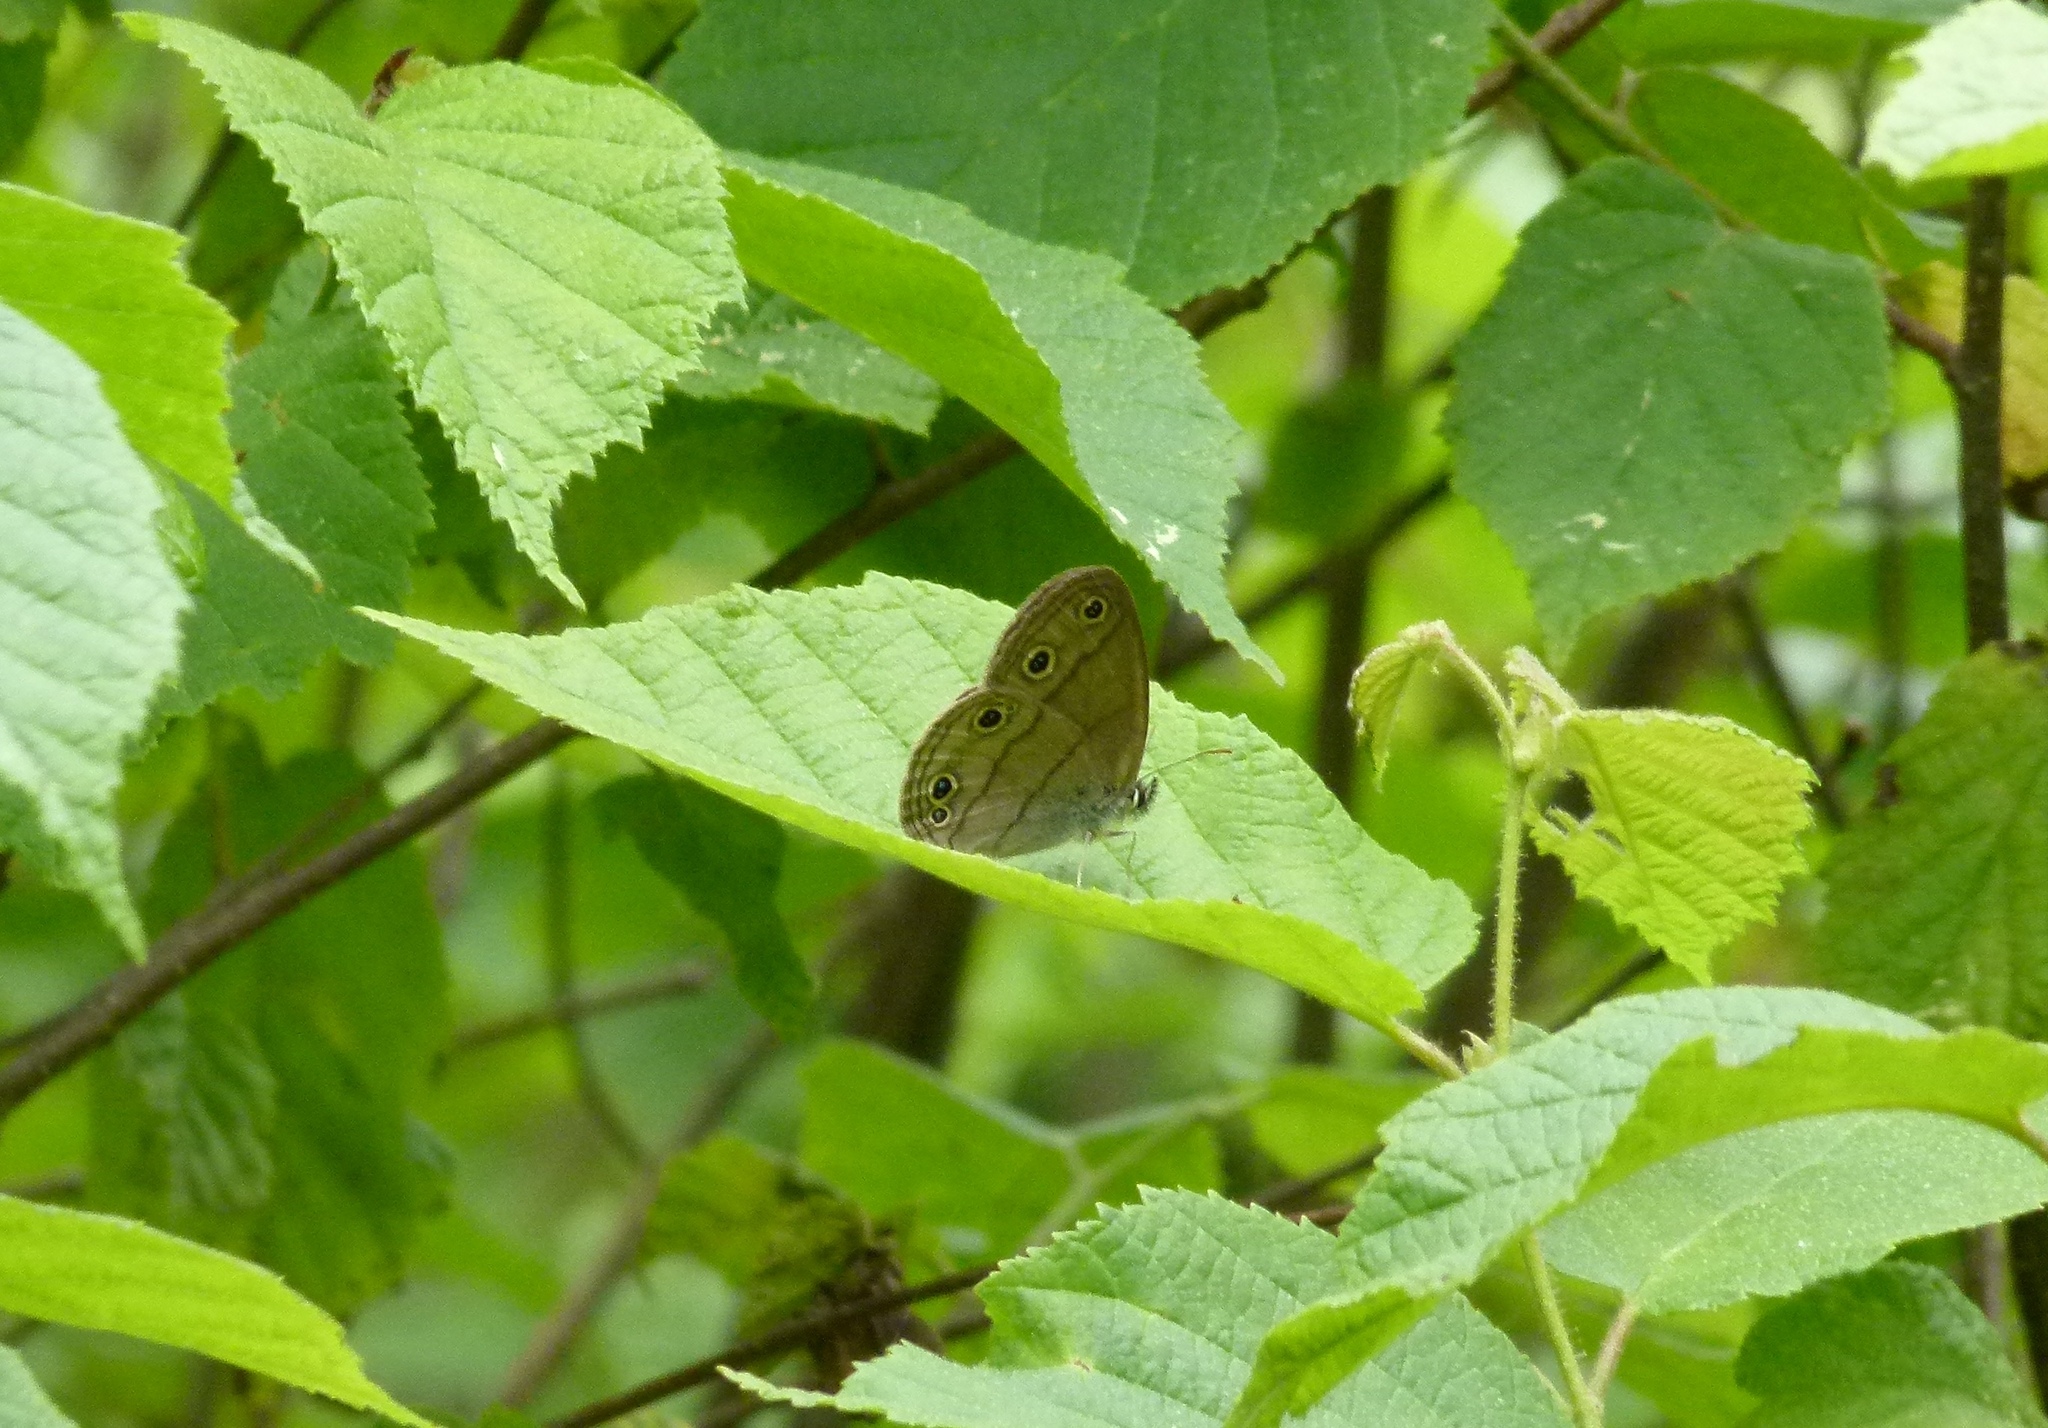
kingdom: Animalia
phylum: Arthropoda
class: Insecta
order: Lepidoptera
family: Nymphalidae
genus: Euptychia
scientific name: Euptychia cymela
